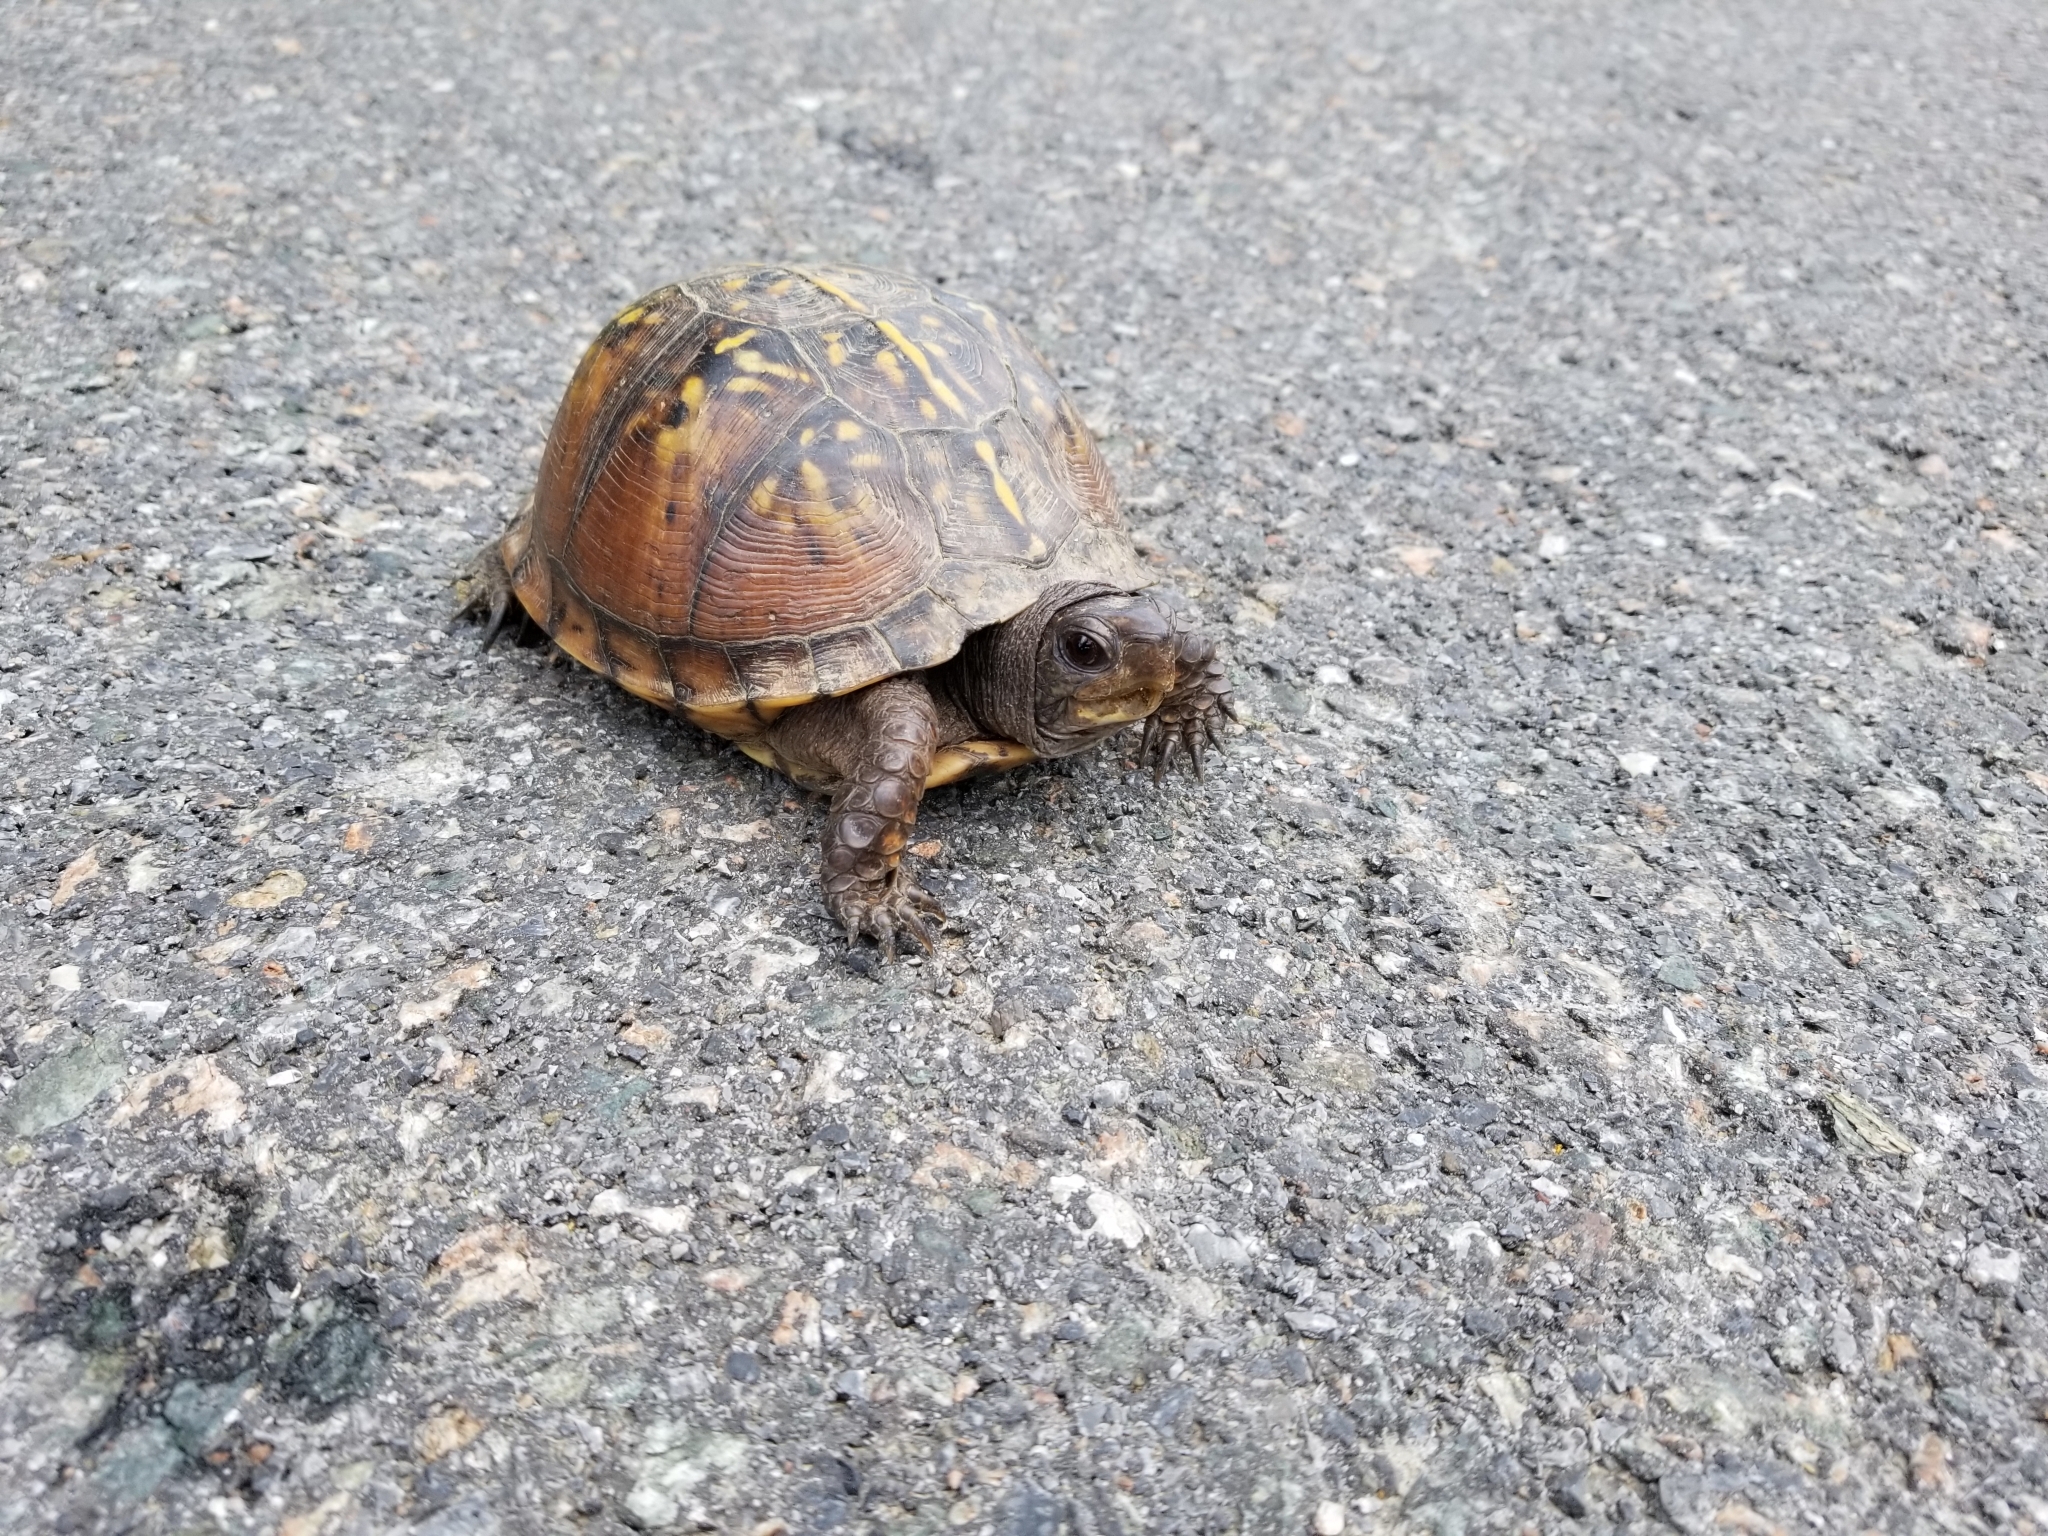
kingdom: Animalia
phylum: Chordata
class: Testudines
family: Emydidae
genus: Terrapene
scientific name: Terrapene carolina
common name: Common box turtle
